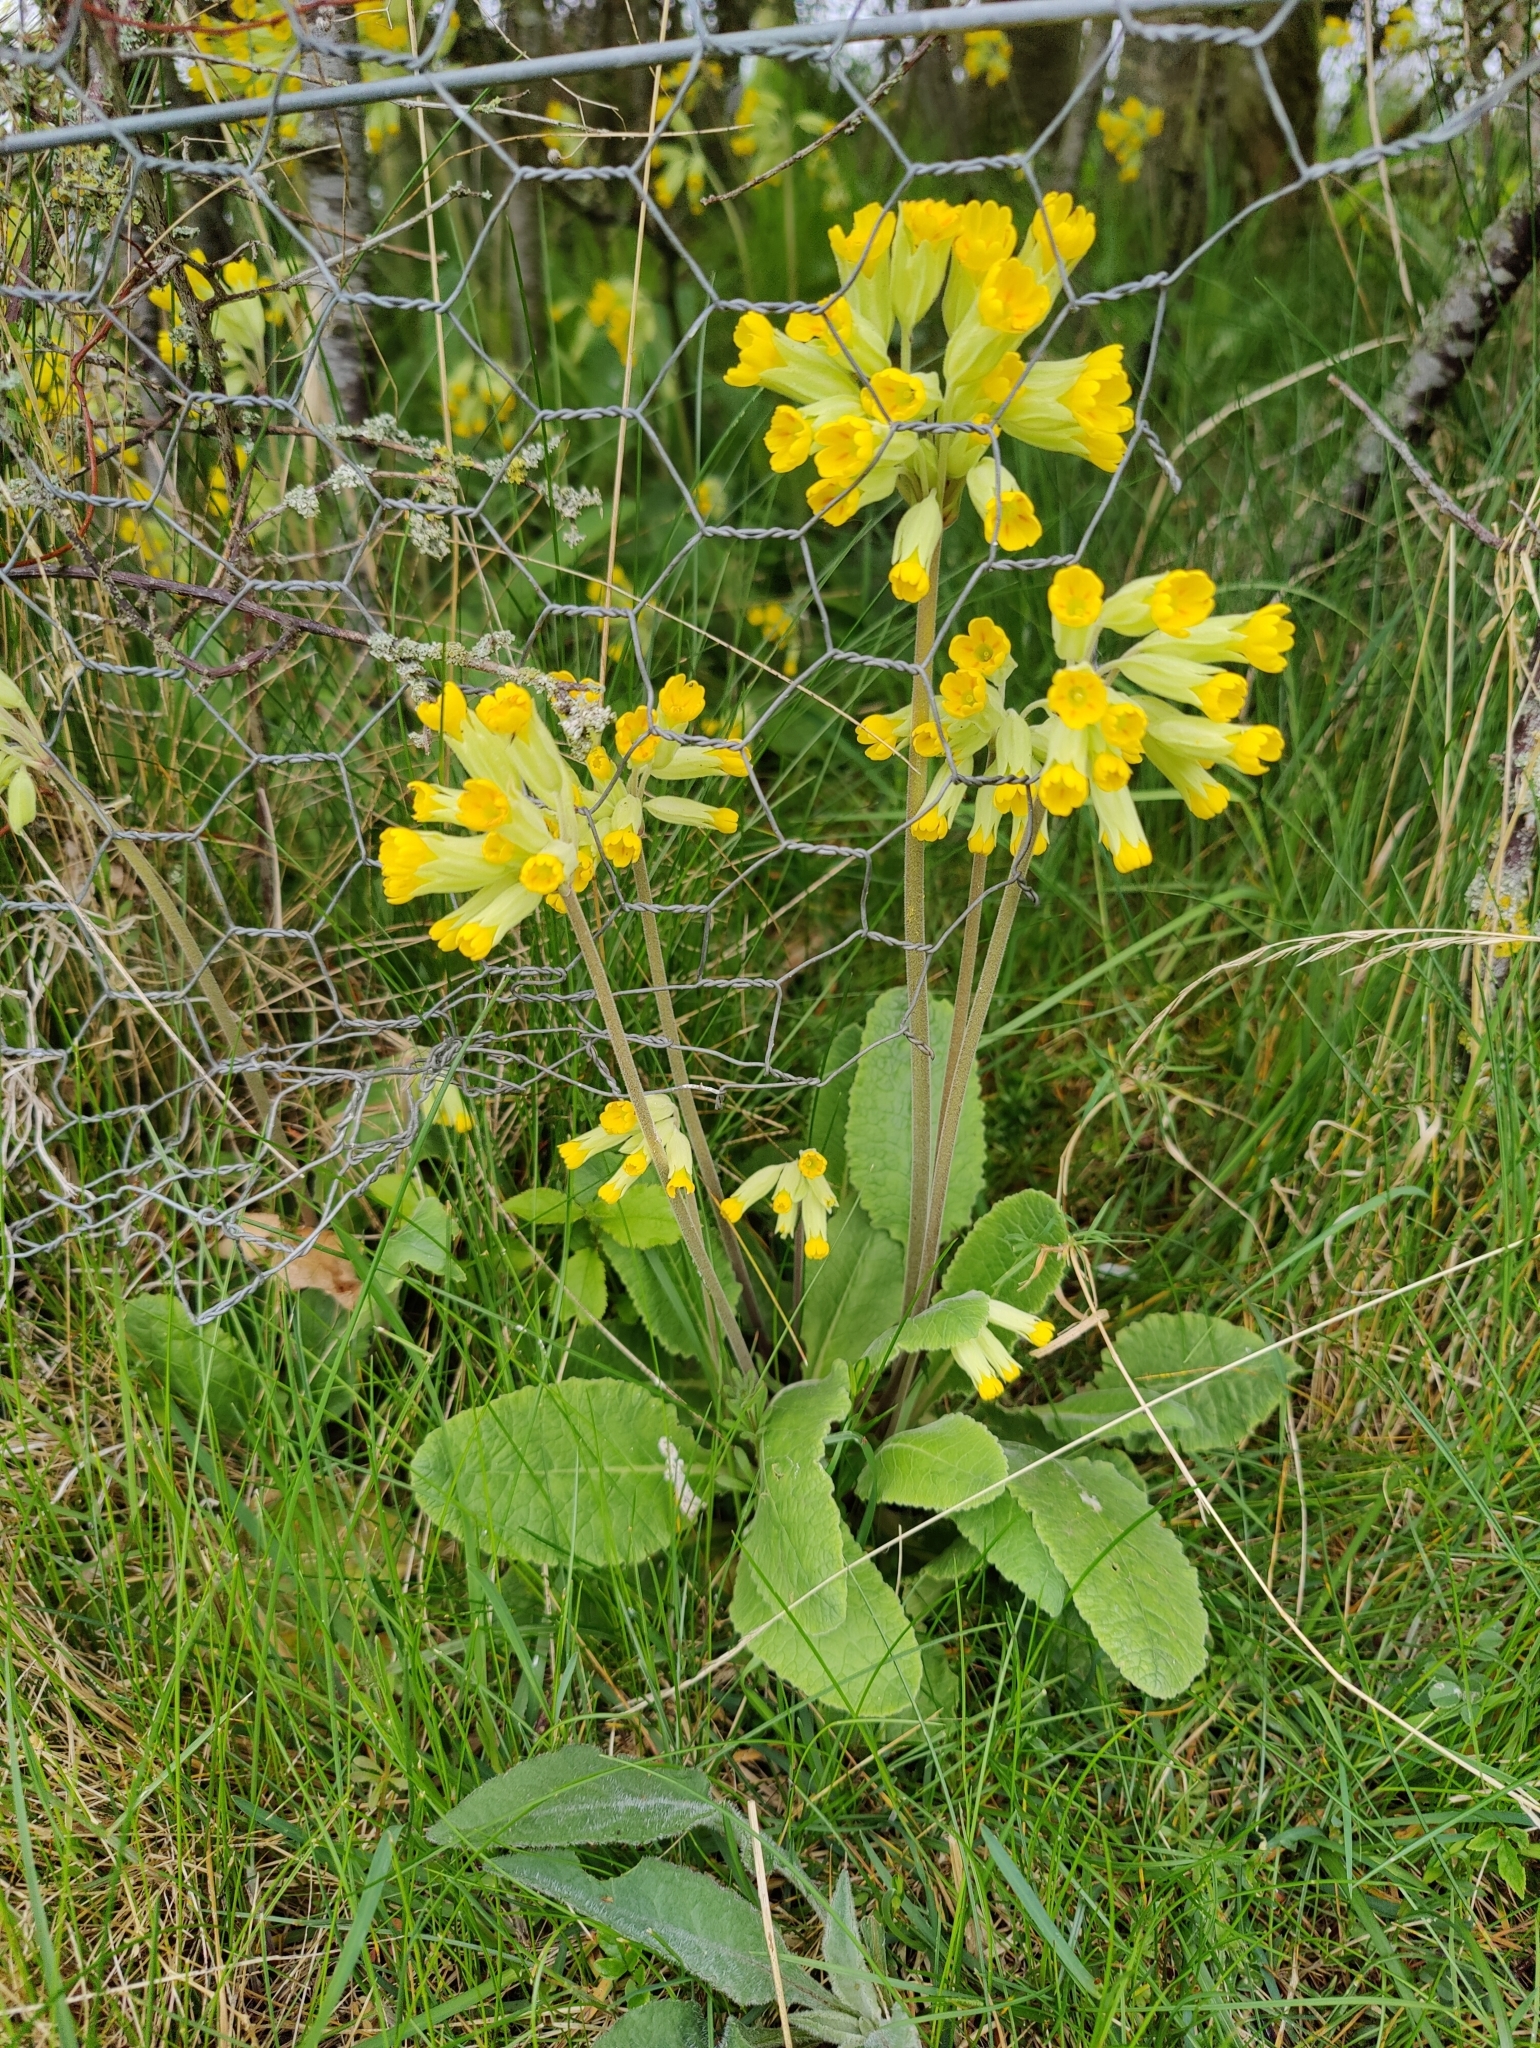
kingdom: Plantae
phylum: Tracheophyta
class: Magnoliopsida
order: Ericales
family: Primulaceae
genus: Primula
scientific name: Primula veris
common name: Cowslip
